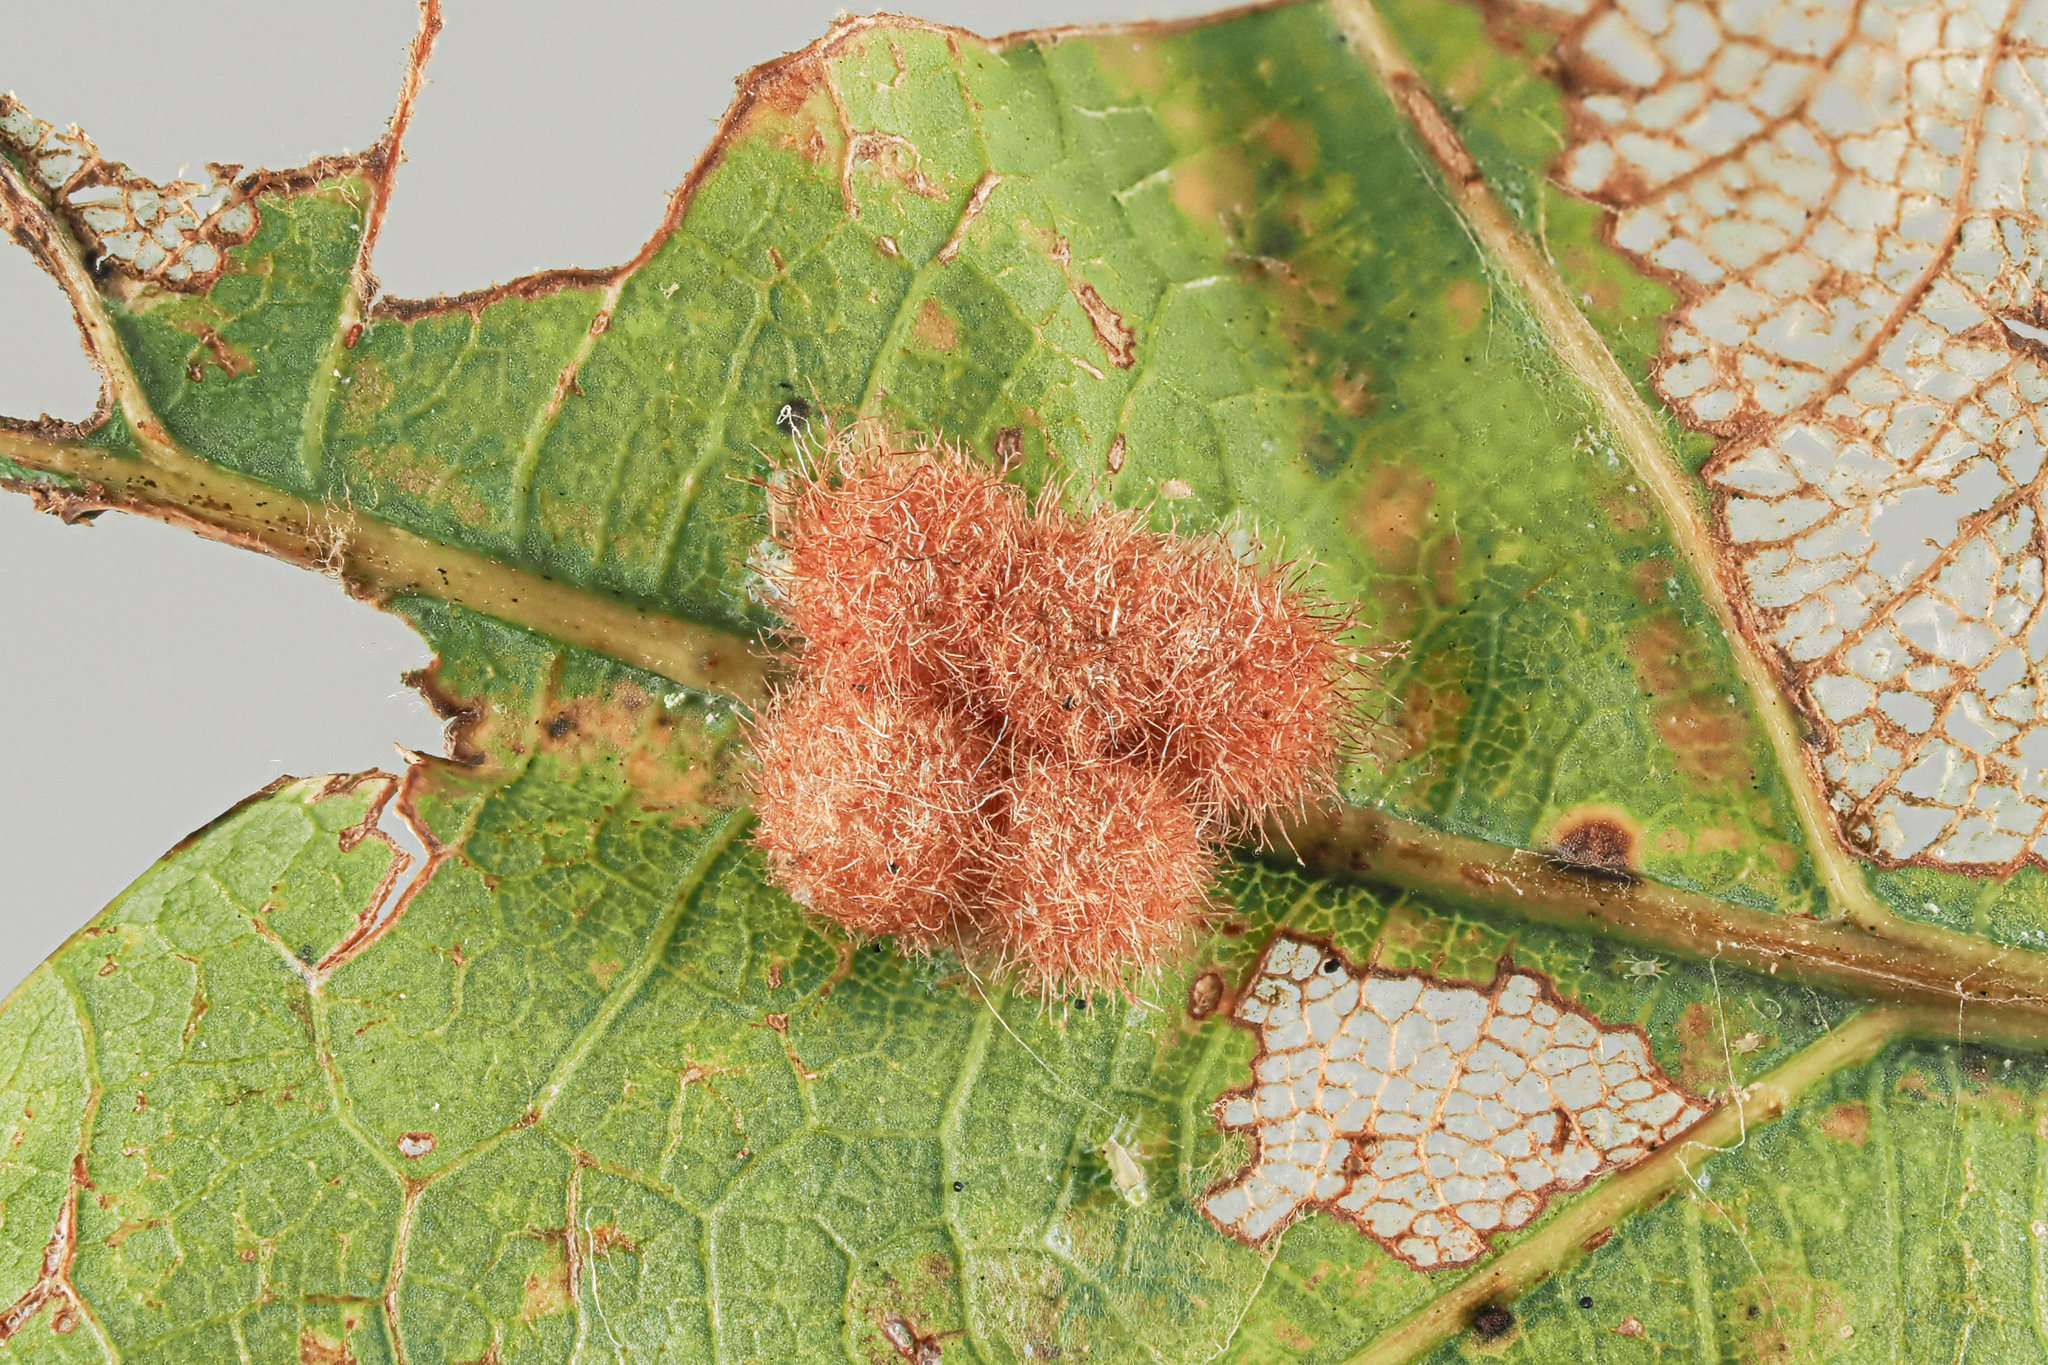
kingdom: Animalia
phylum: Arthropoda
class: Insecta
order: Hymenoptera
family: Cynipidae
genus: Andricus
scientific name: Andricus
